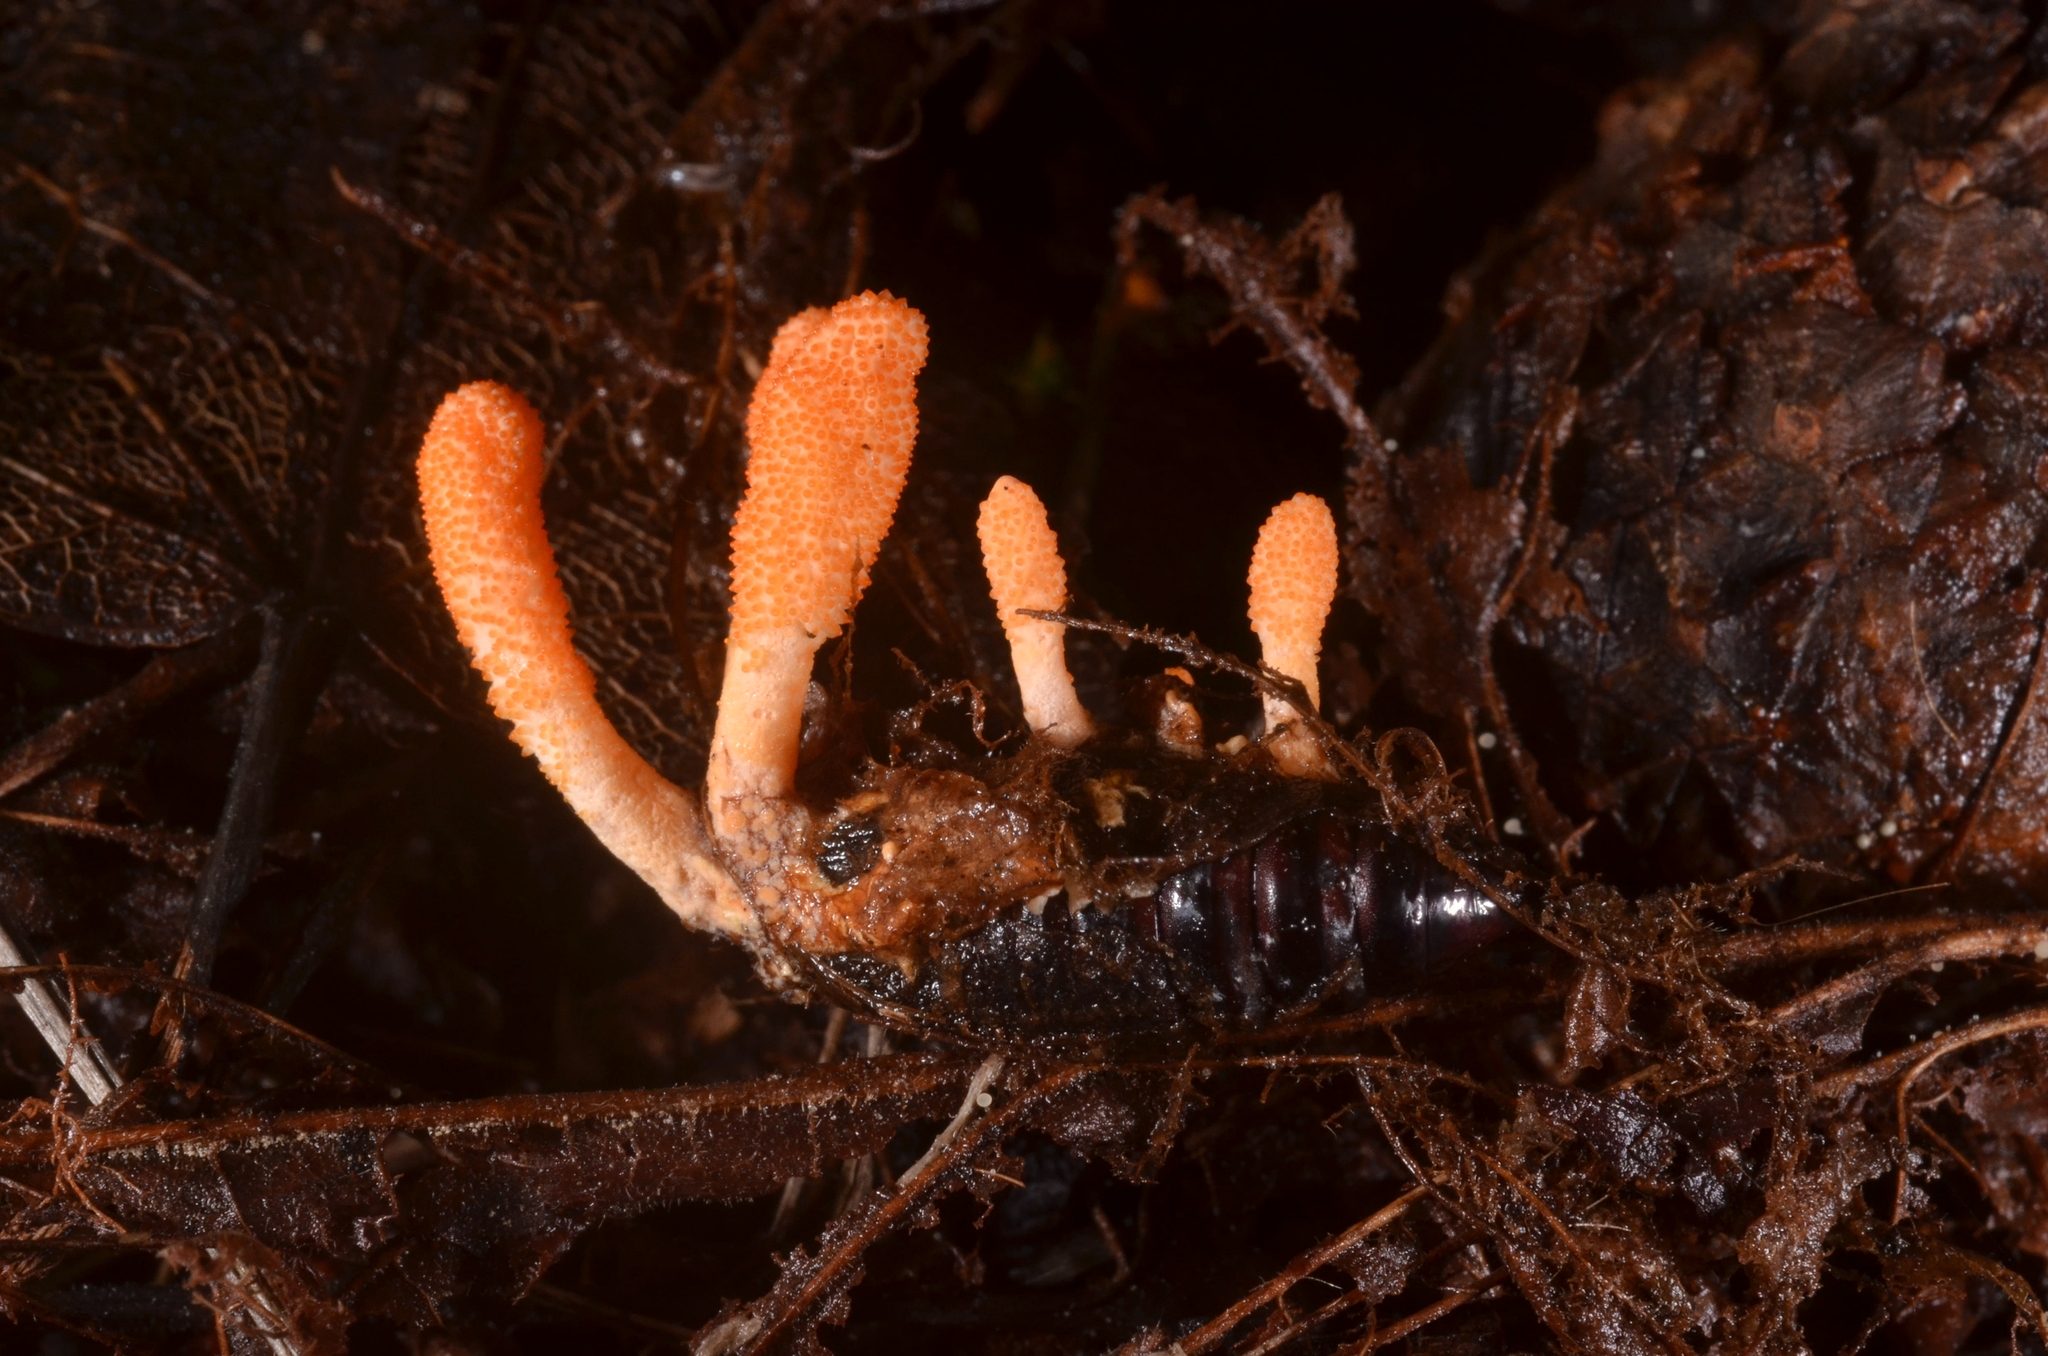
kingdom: Fungi
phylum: Ascomycota
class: Sordariomycetes
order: Hypocreales
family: Cordycipitaceae
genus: Cordyceps
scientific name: Cordyceps militaris
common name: Scarlet caterpillar fungus
